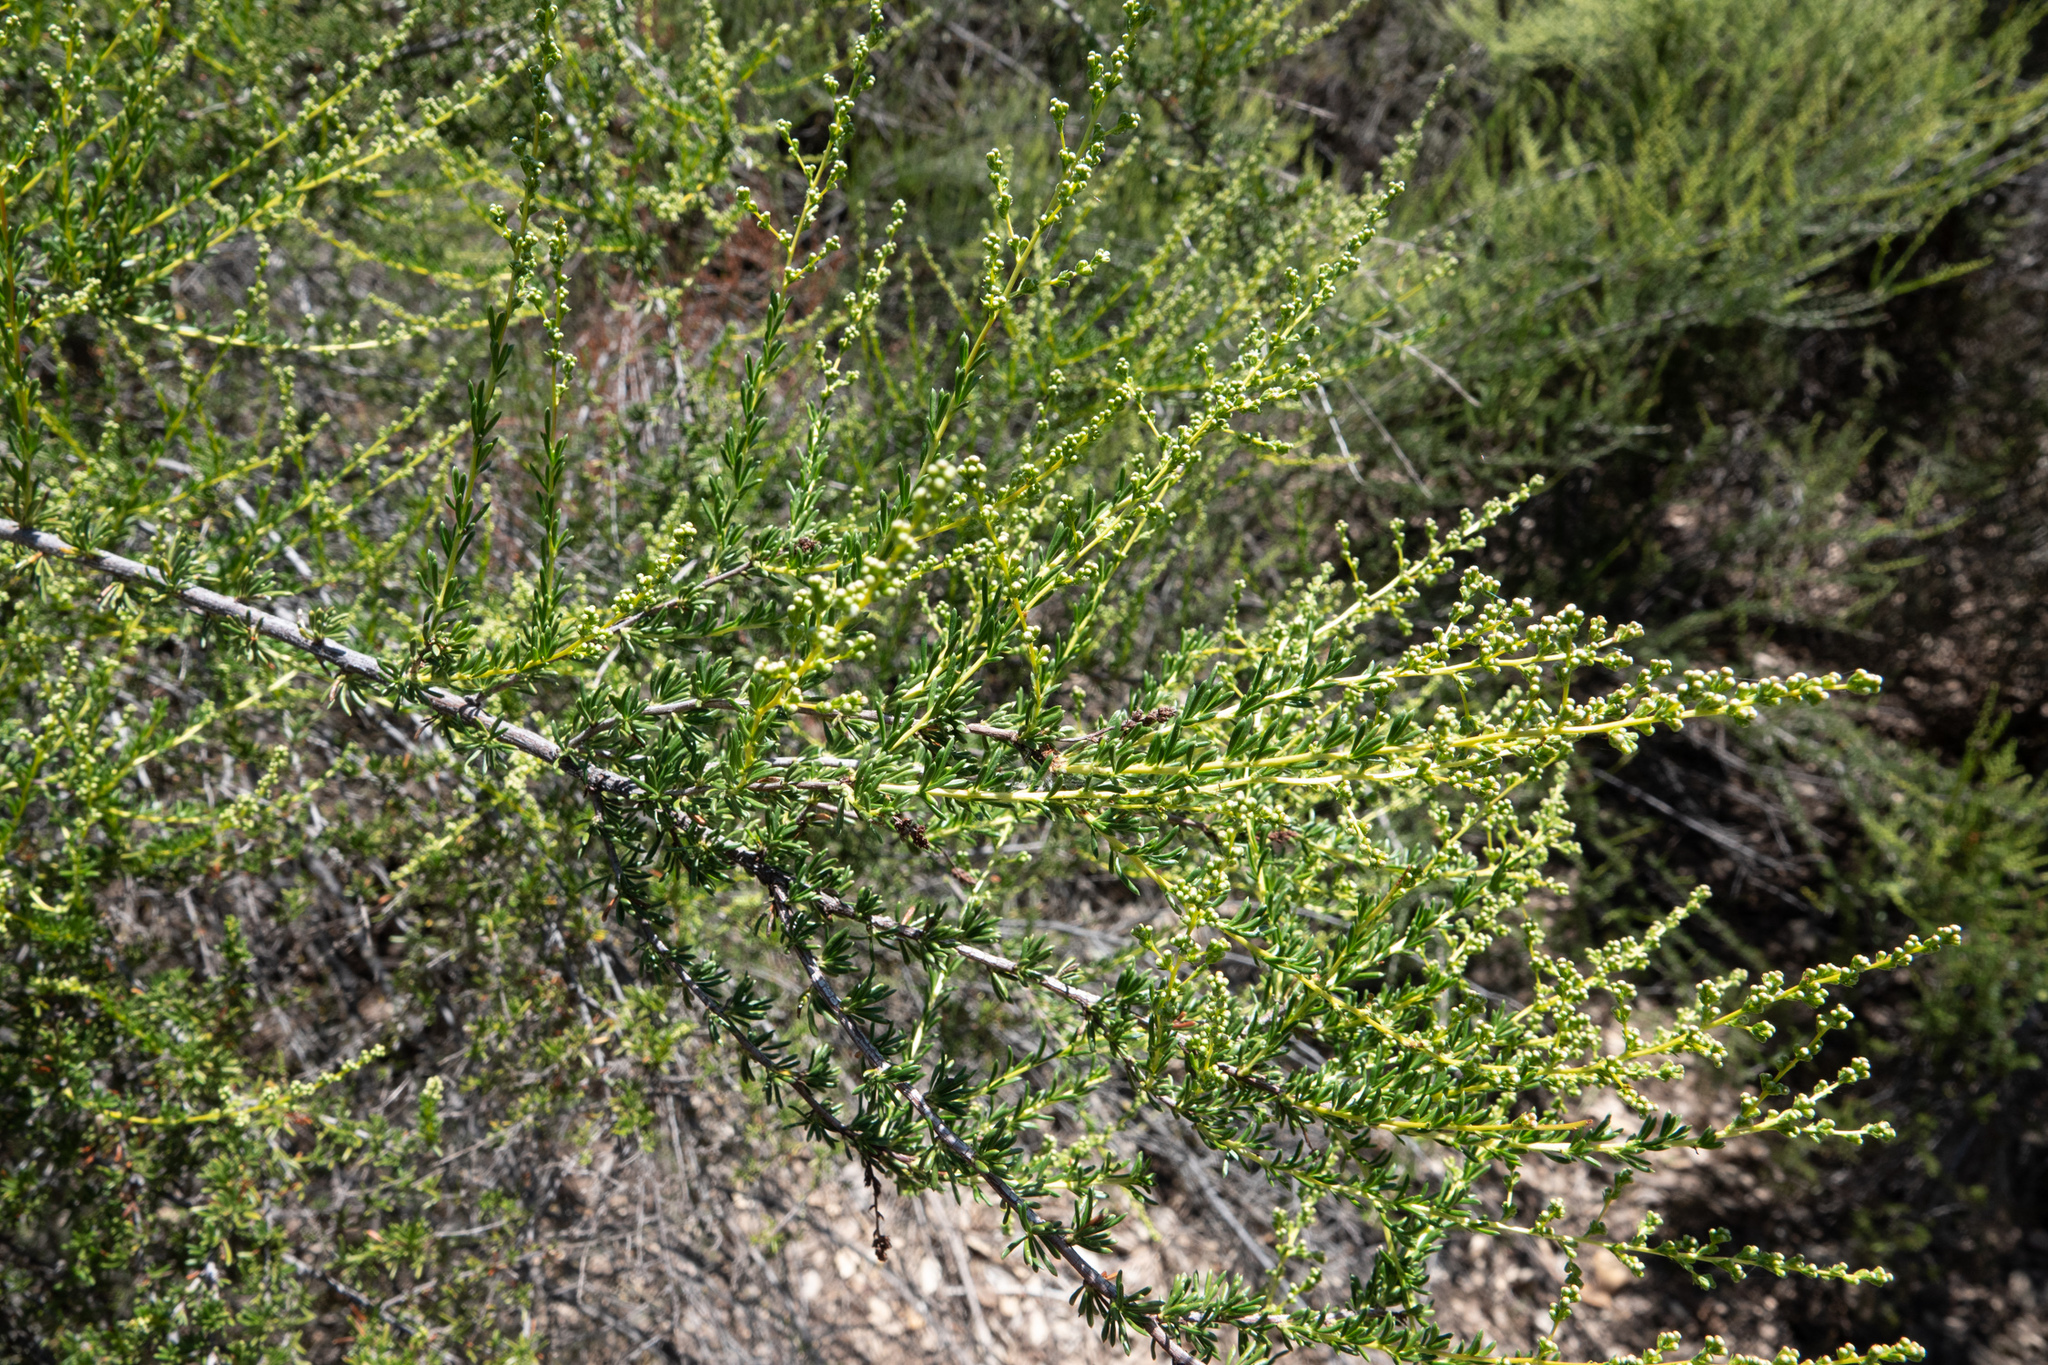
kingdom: Plantae
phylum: Tracheophyta
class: Magnoliopsida
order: Rosales
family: Rosaceae
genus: Adenostoma
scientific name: Adenostoma fasciculatum
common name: Chamise
